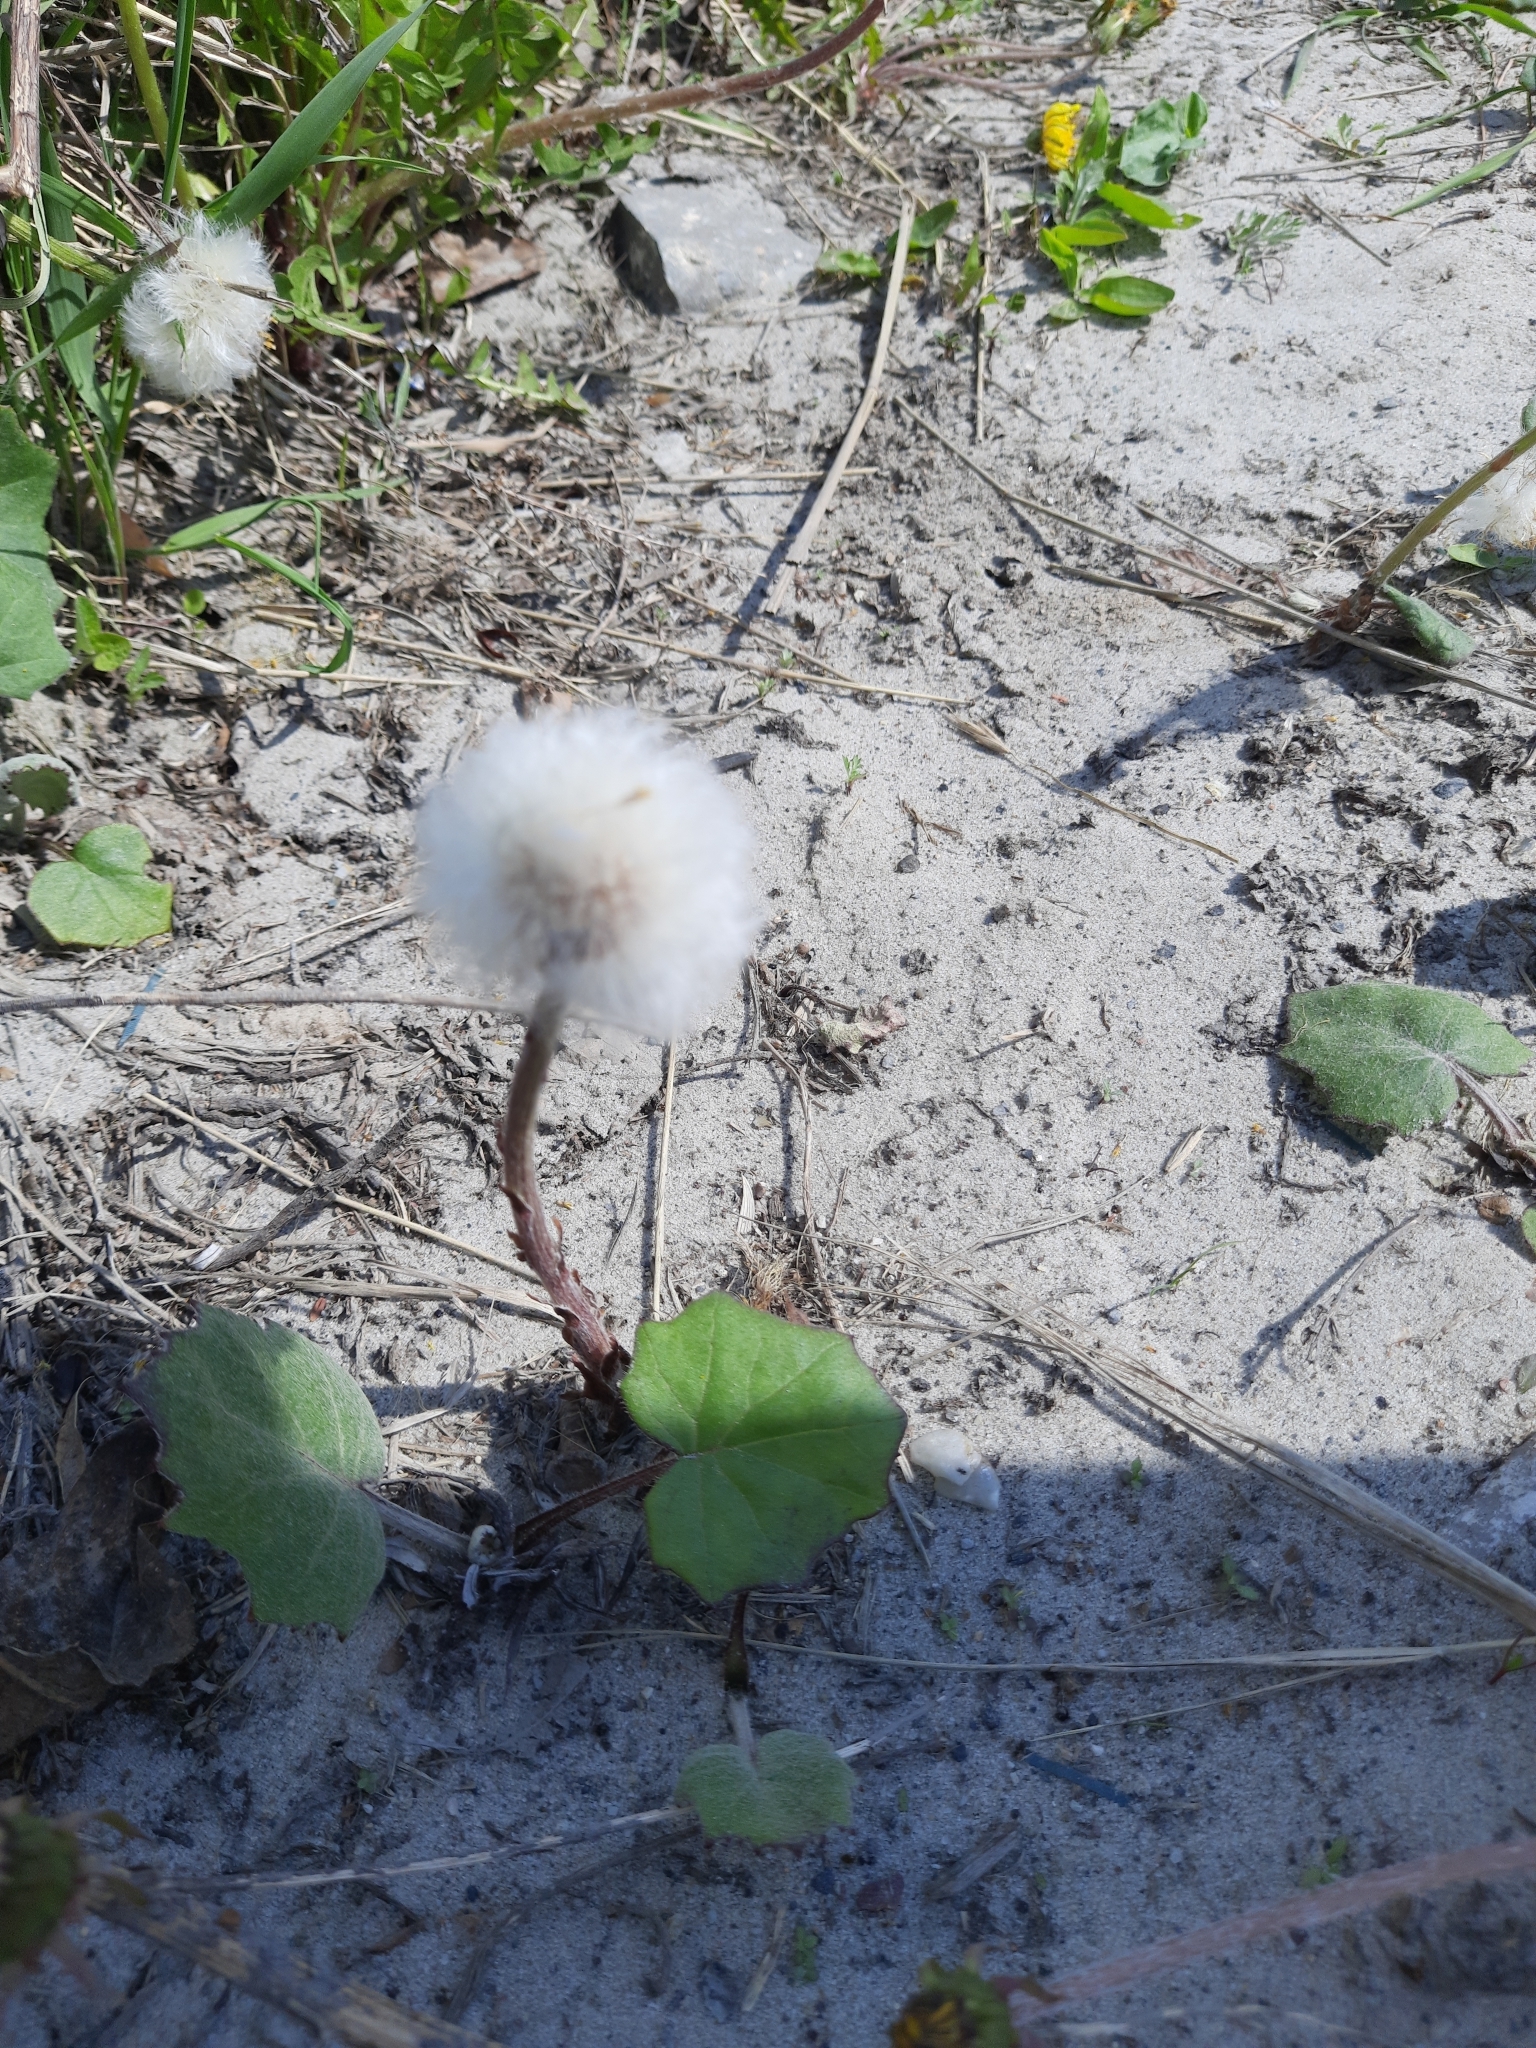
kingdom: Plantae
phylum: Tracheophyta
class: Magnoliopsida
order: Asterales
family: Asteraceae
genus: Tussilago
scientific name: Tussilago farfara
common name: Coltsfoot
